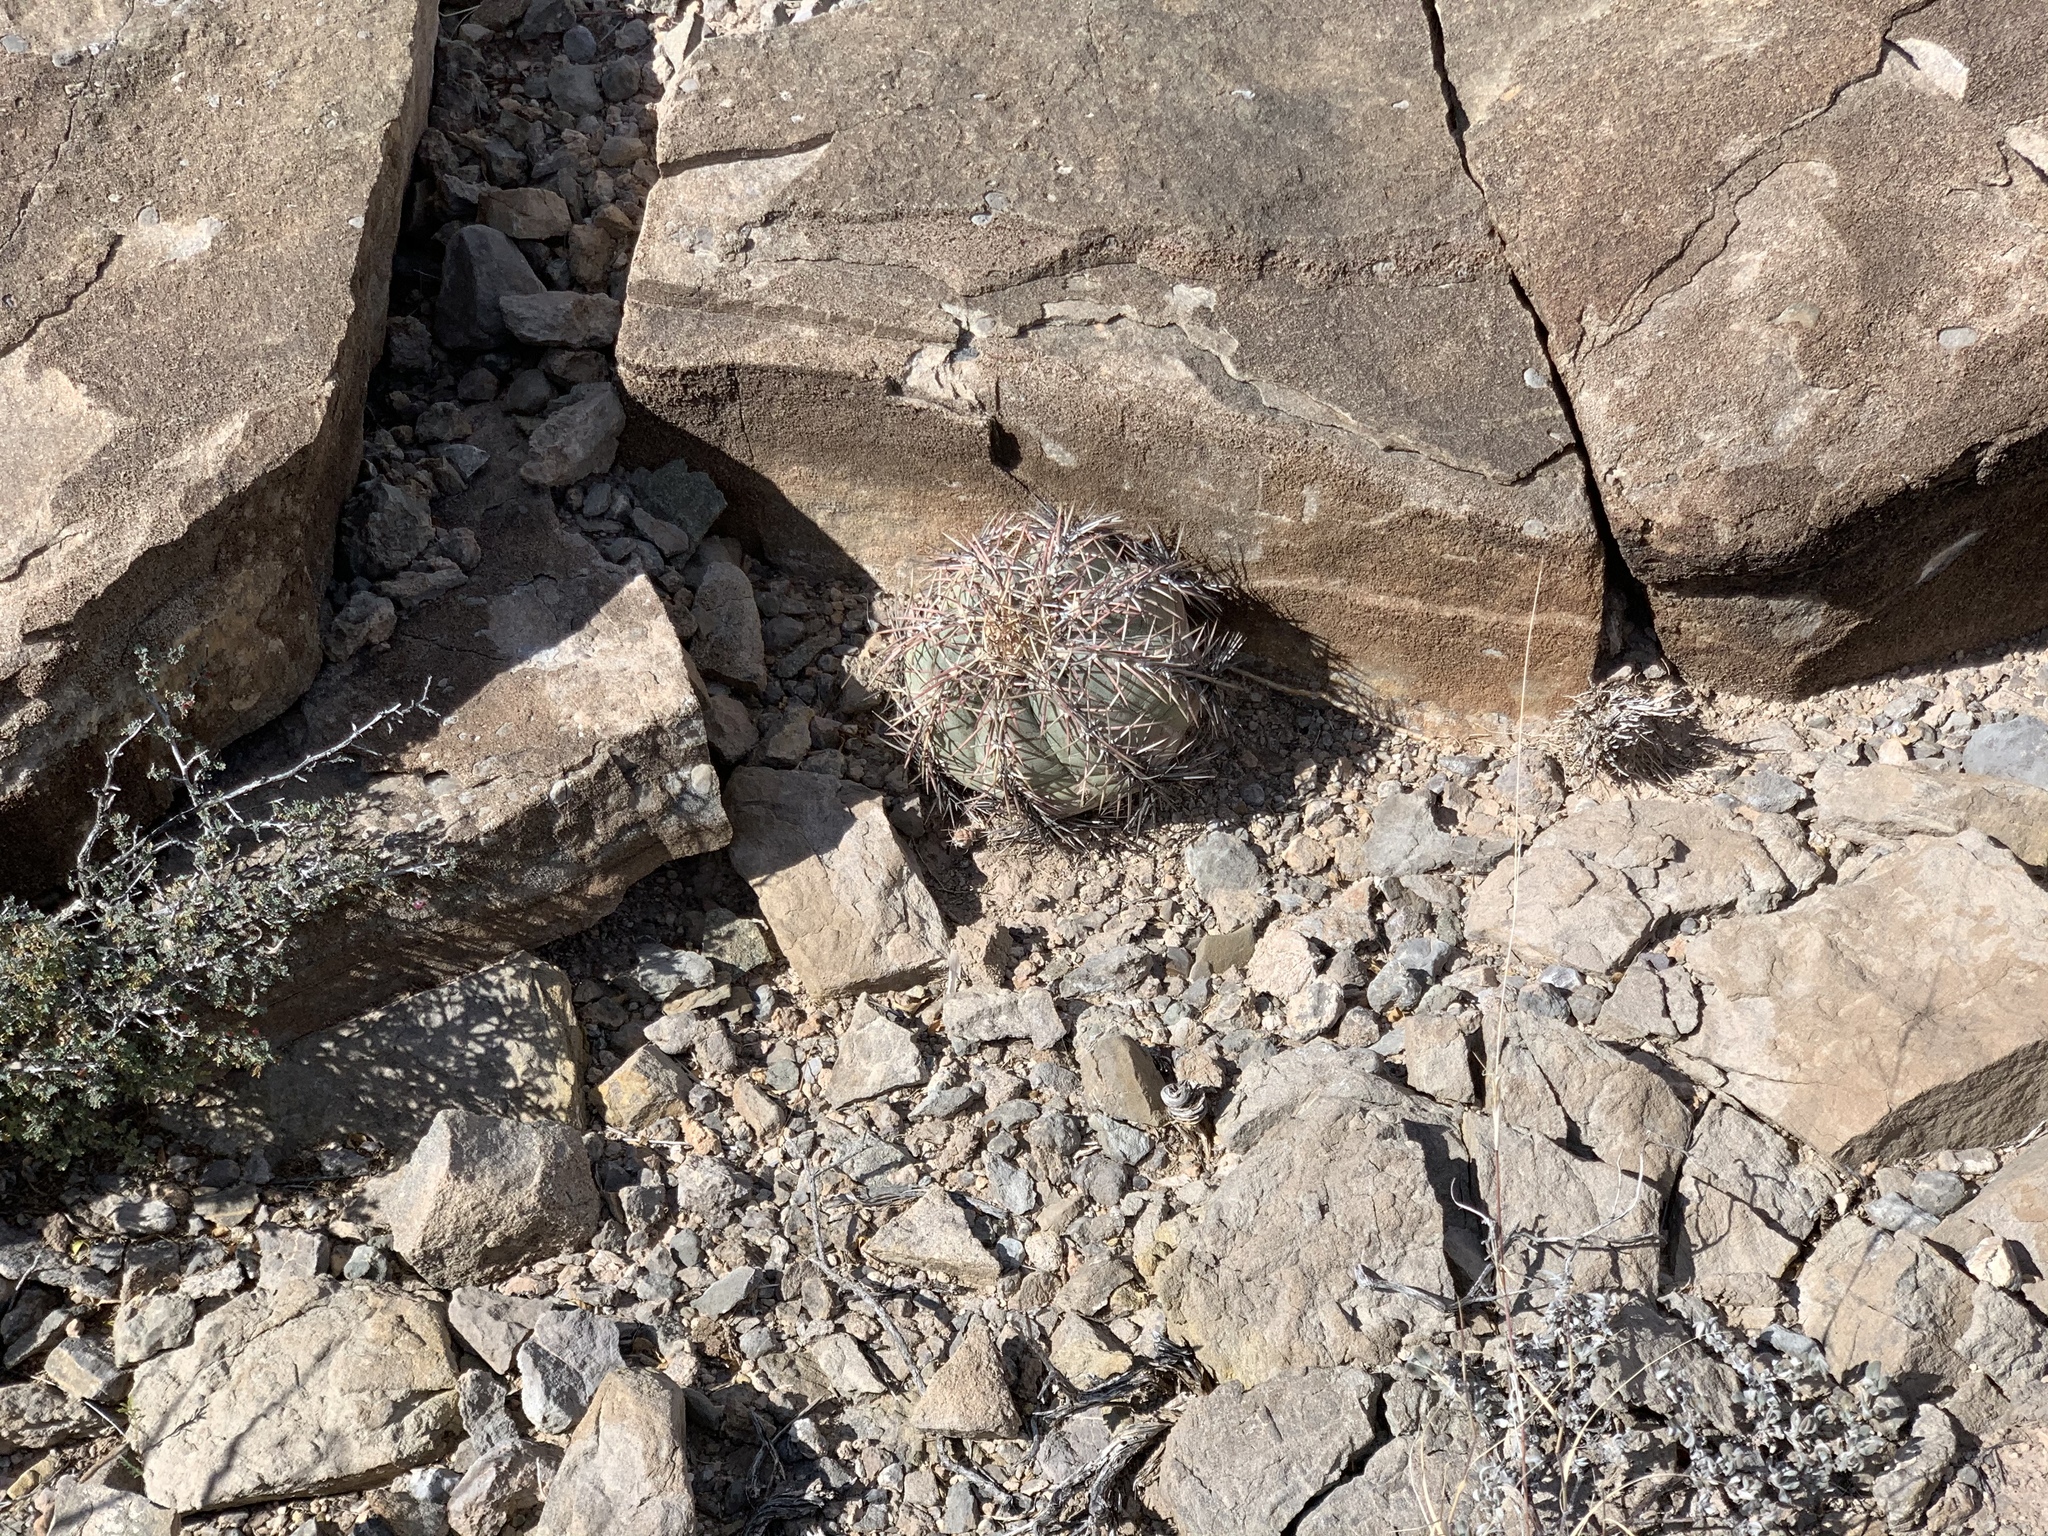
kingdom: Plantae
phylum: Tracheophyta
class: Magnoliopsida
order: Caryophyllales
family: Cactaceae
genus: Echinocactus
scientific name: Echinocactus horizonthalonius
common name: Devilshead
